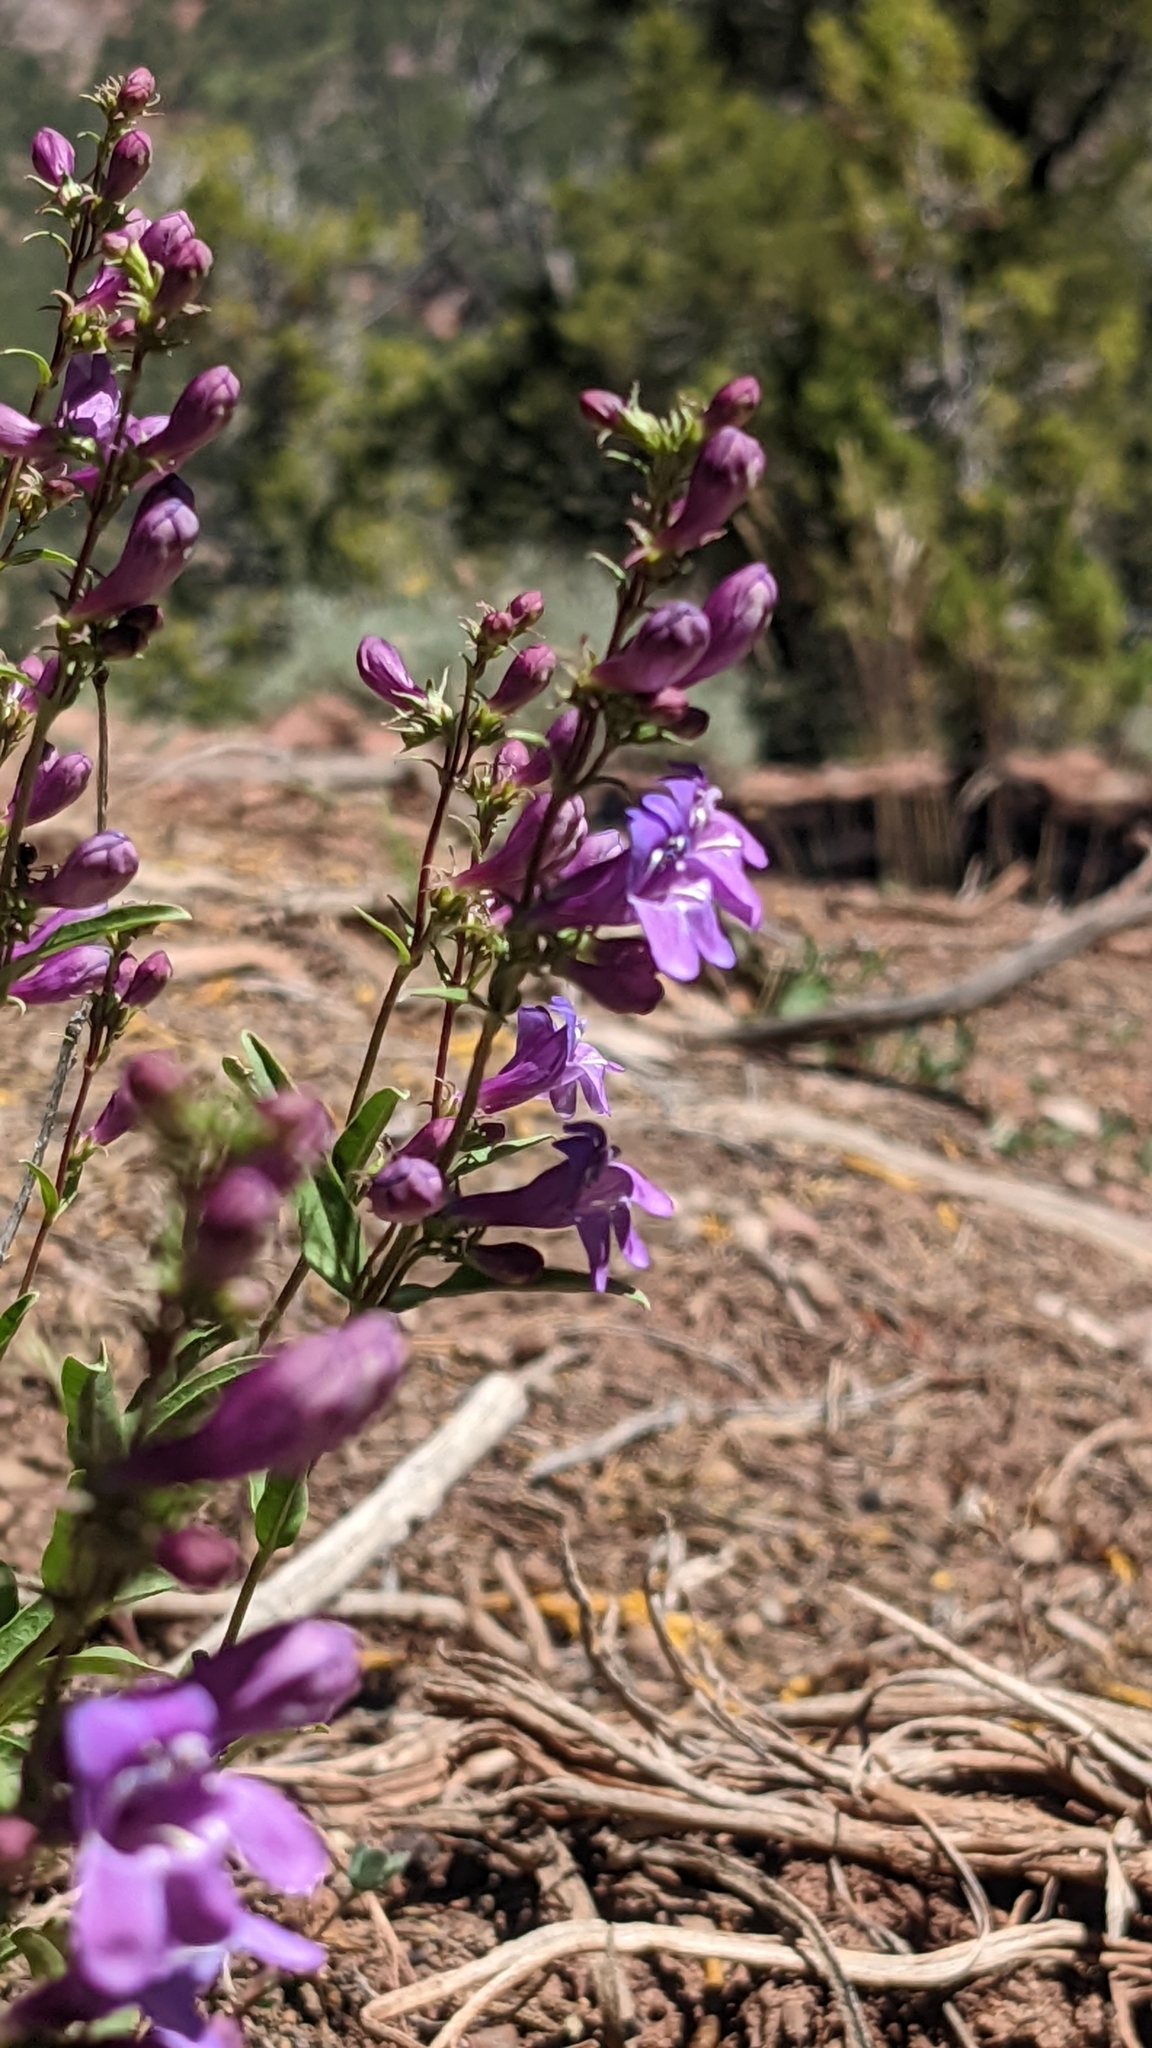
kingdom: Plantae
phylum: Tracheophyta
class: Magnoliopsida
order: Lamiales
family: Plantaginaceae
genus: Penstemon
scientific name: Penstemon leonardii
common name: Leonard's penstemon
